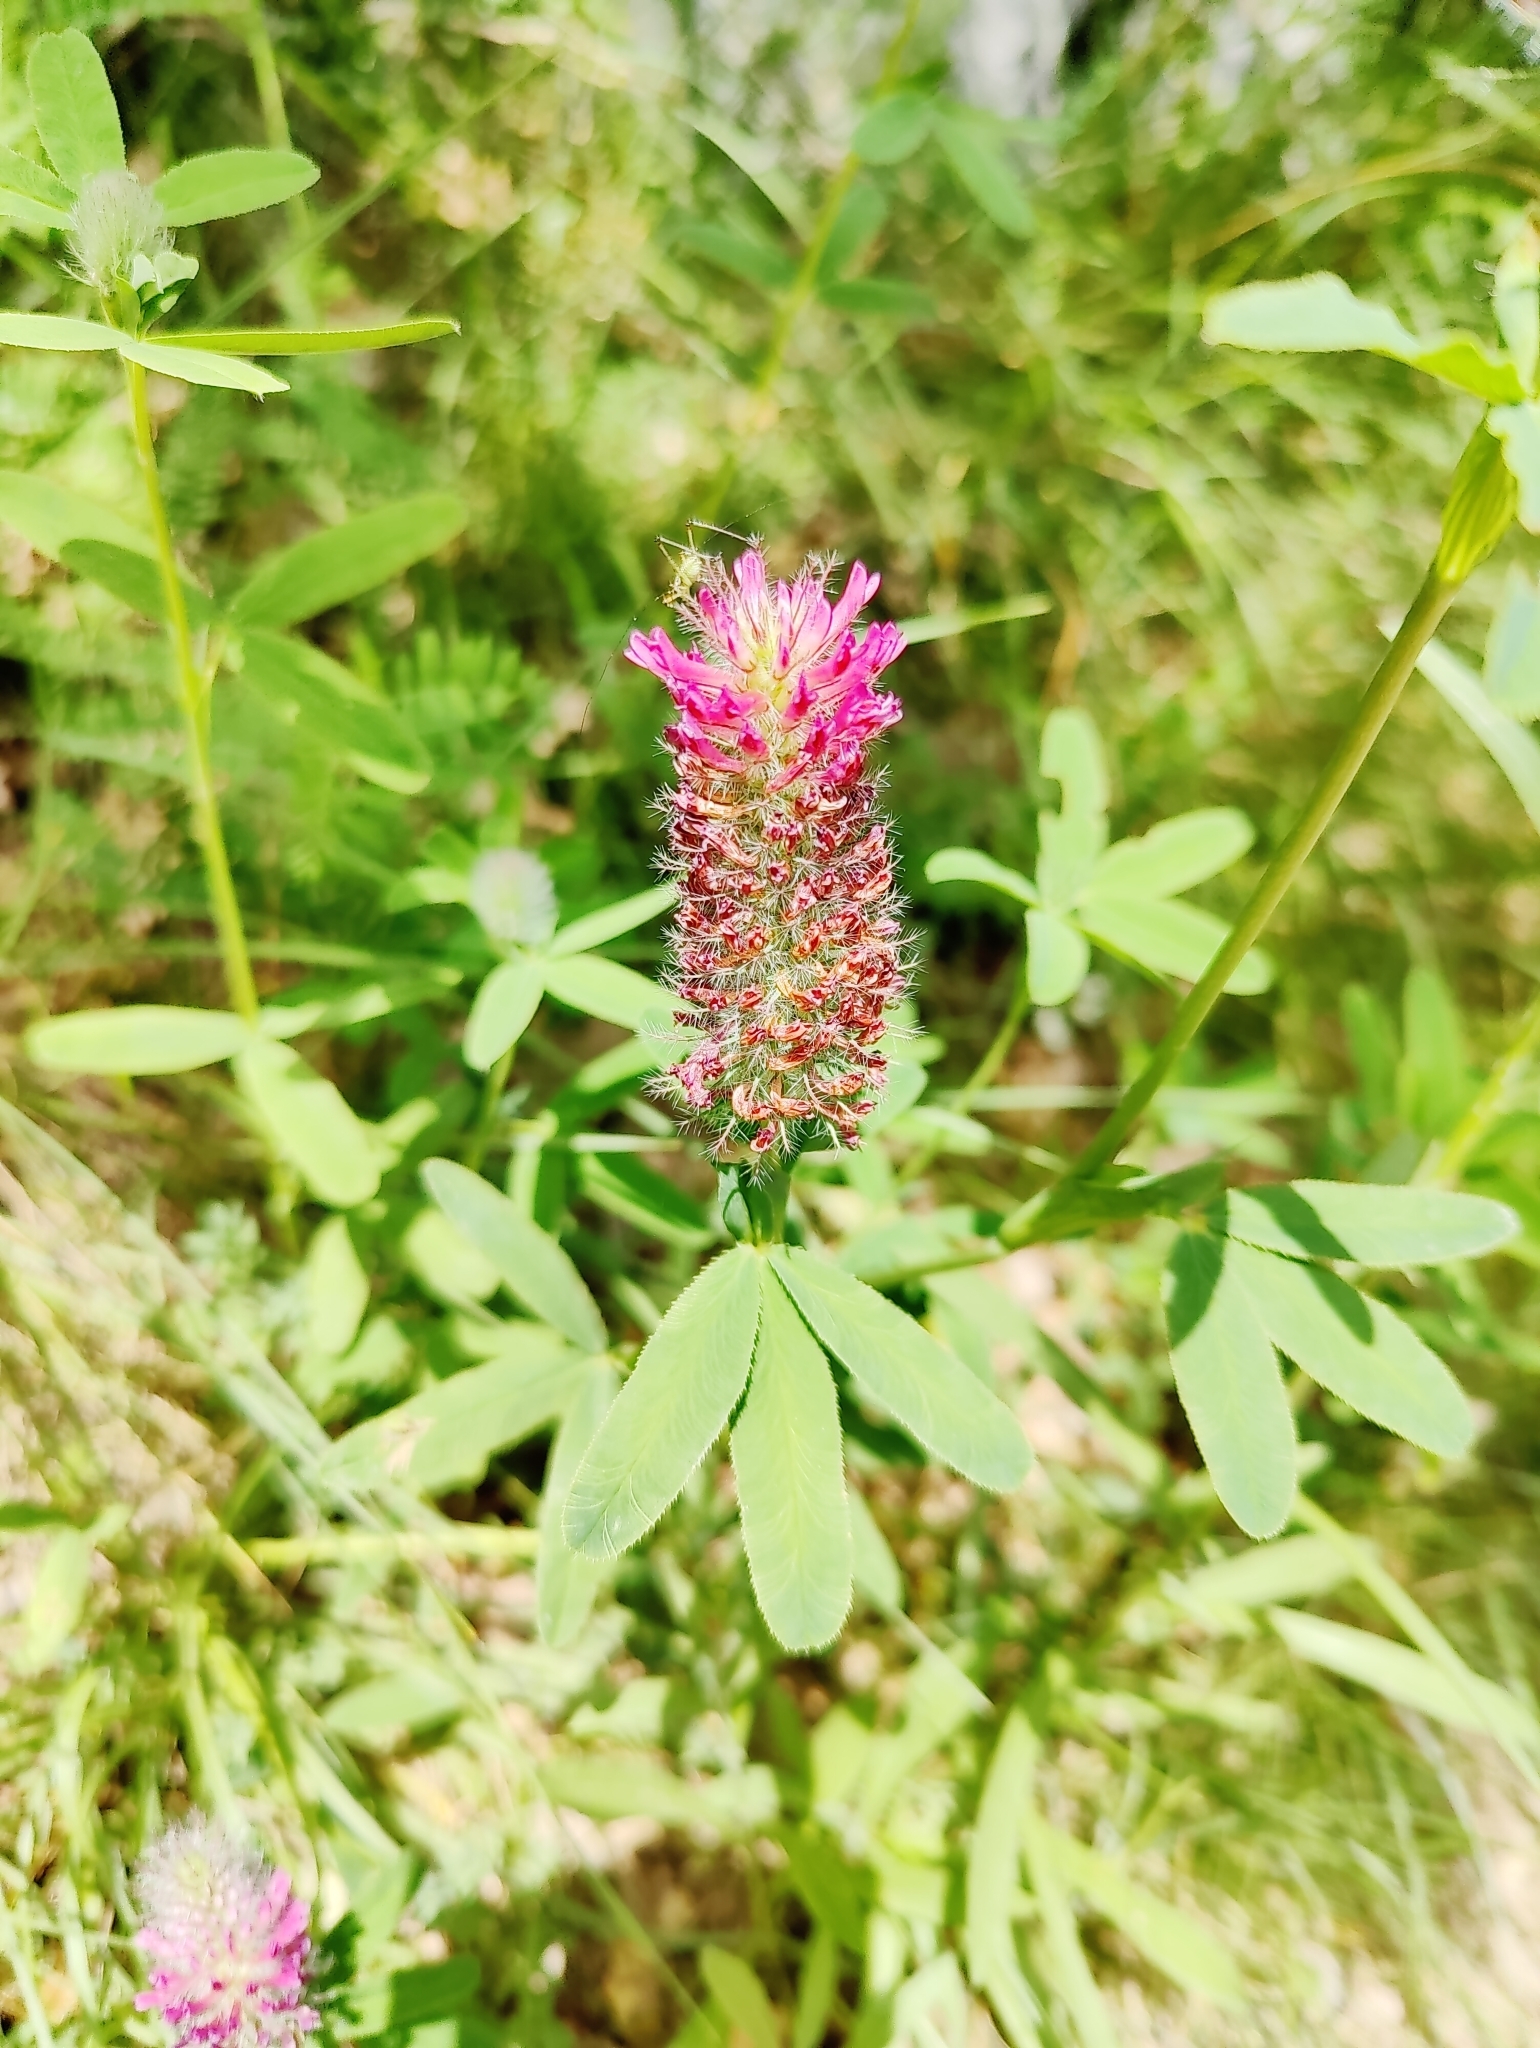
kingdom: Plantae
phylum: Tracheophyta
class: Magnoliopsida
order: Fabales
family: Fabaceae
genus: Trifolium
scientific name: Trifolium rubens
